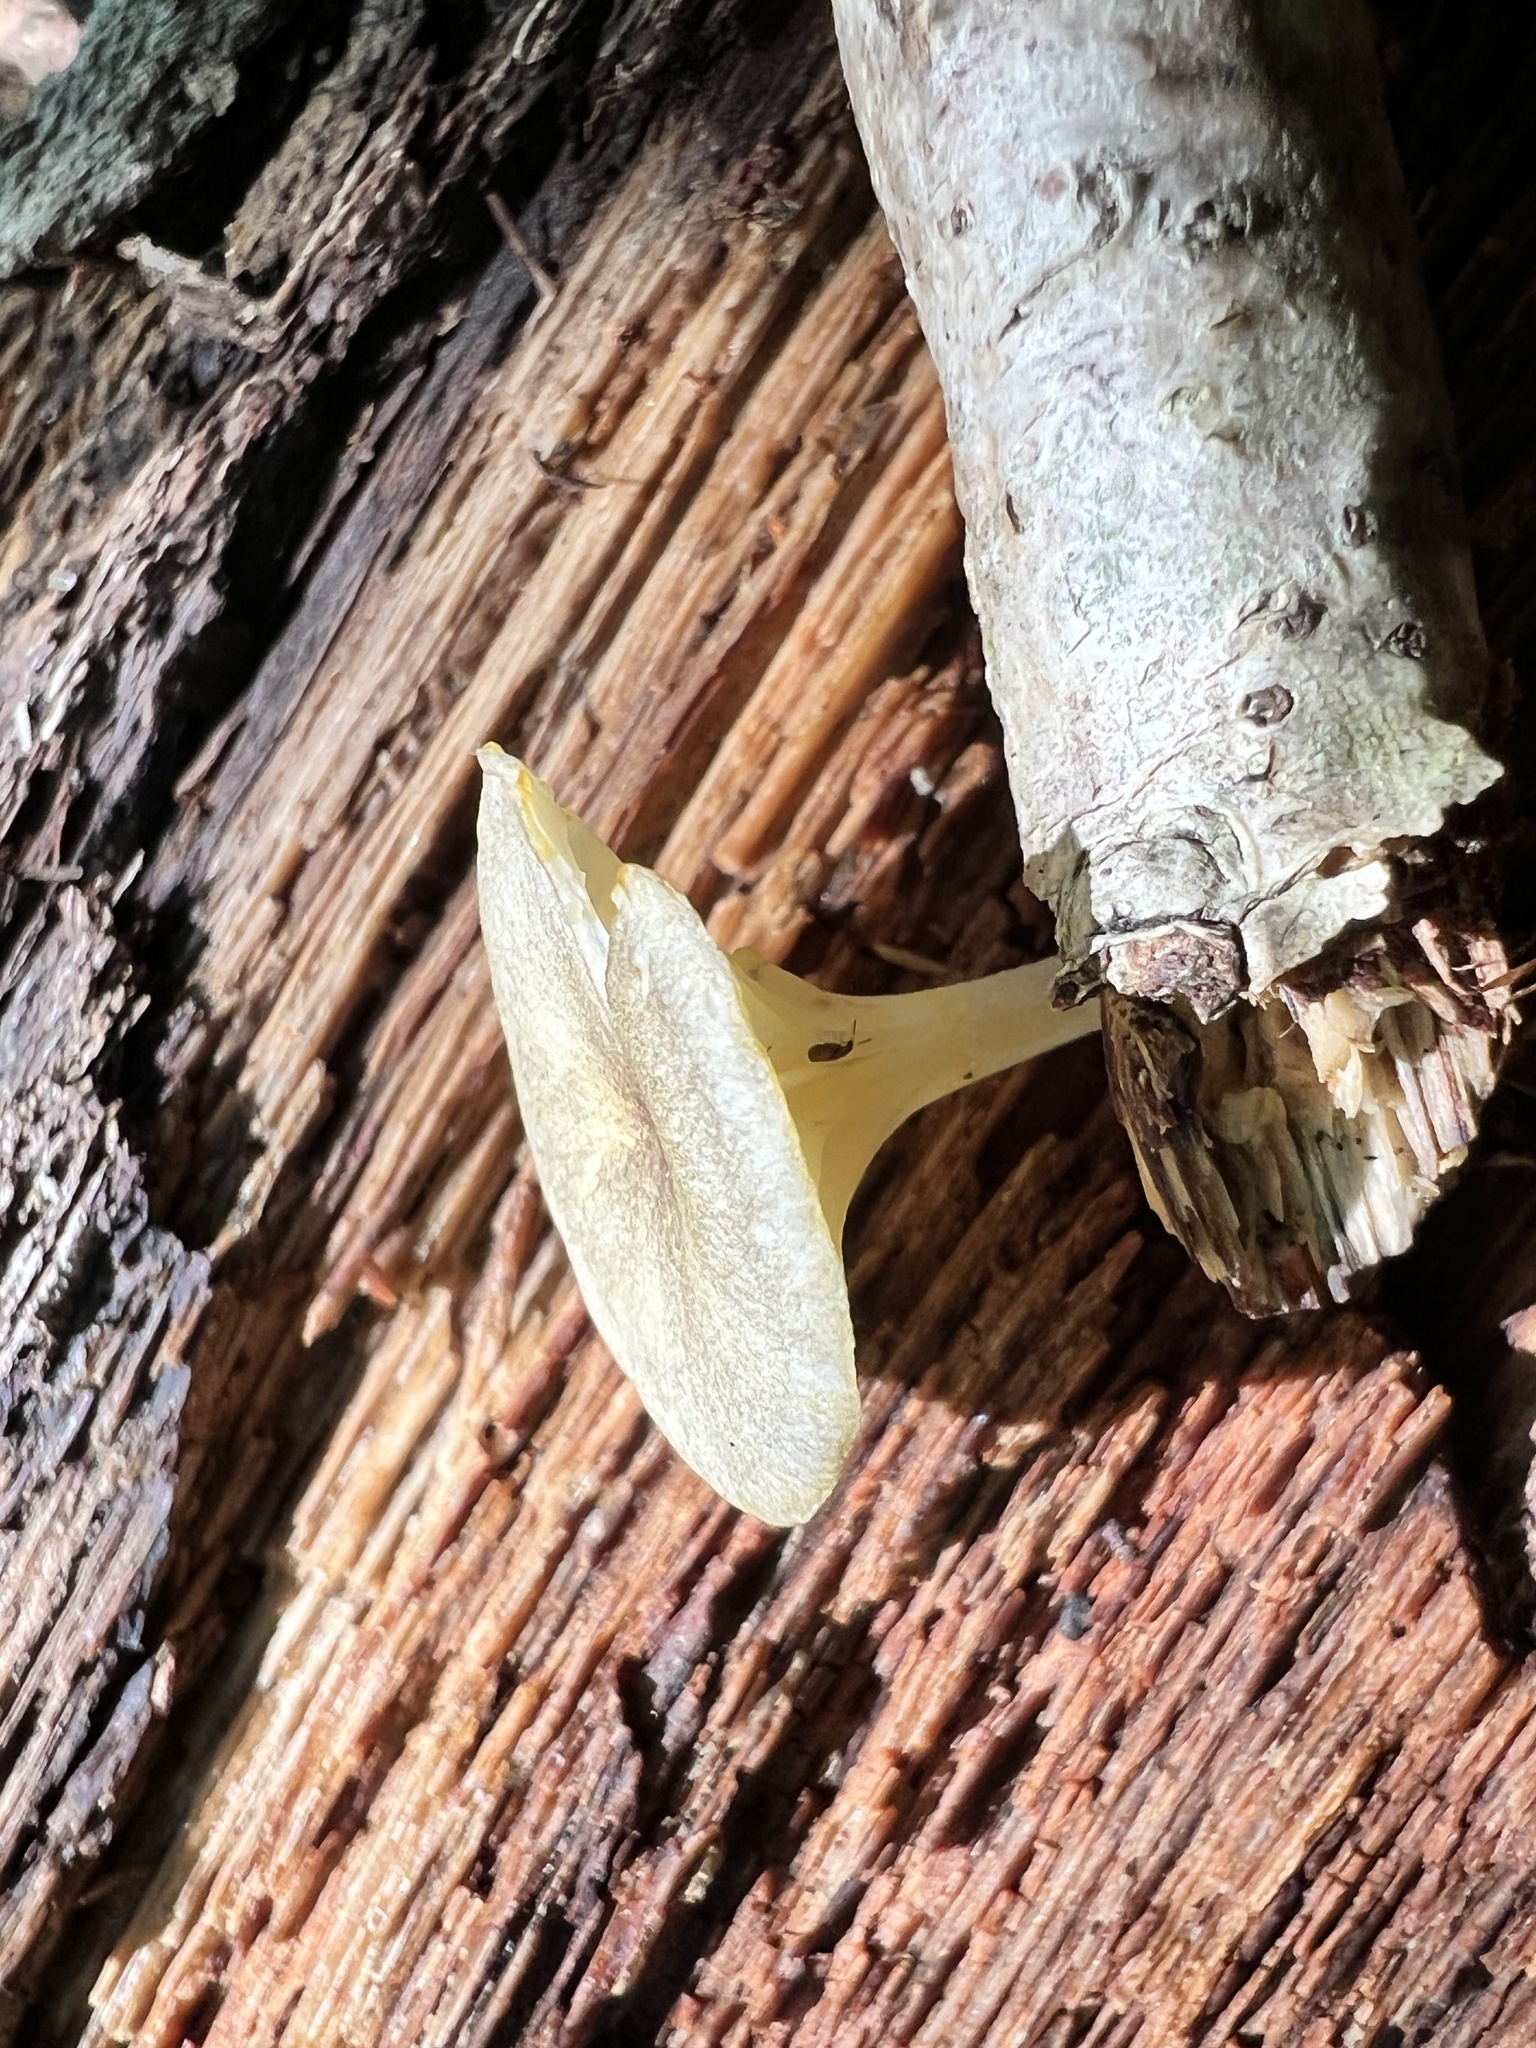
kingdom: Fungi
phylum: Basidiomycota
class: Agaricomycetes
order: Agaricales
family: Marasmiaceae
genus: Gerronema
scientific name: Gerronema strombodes
